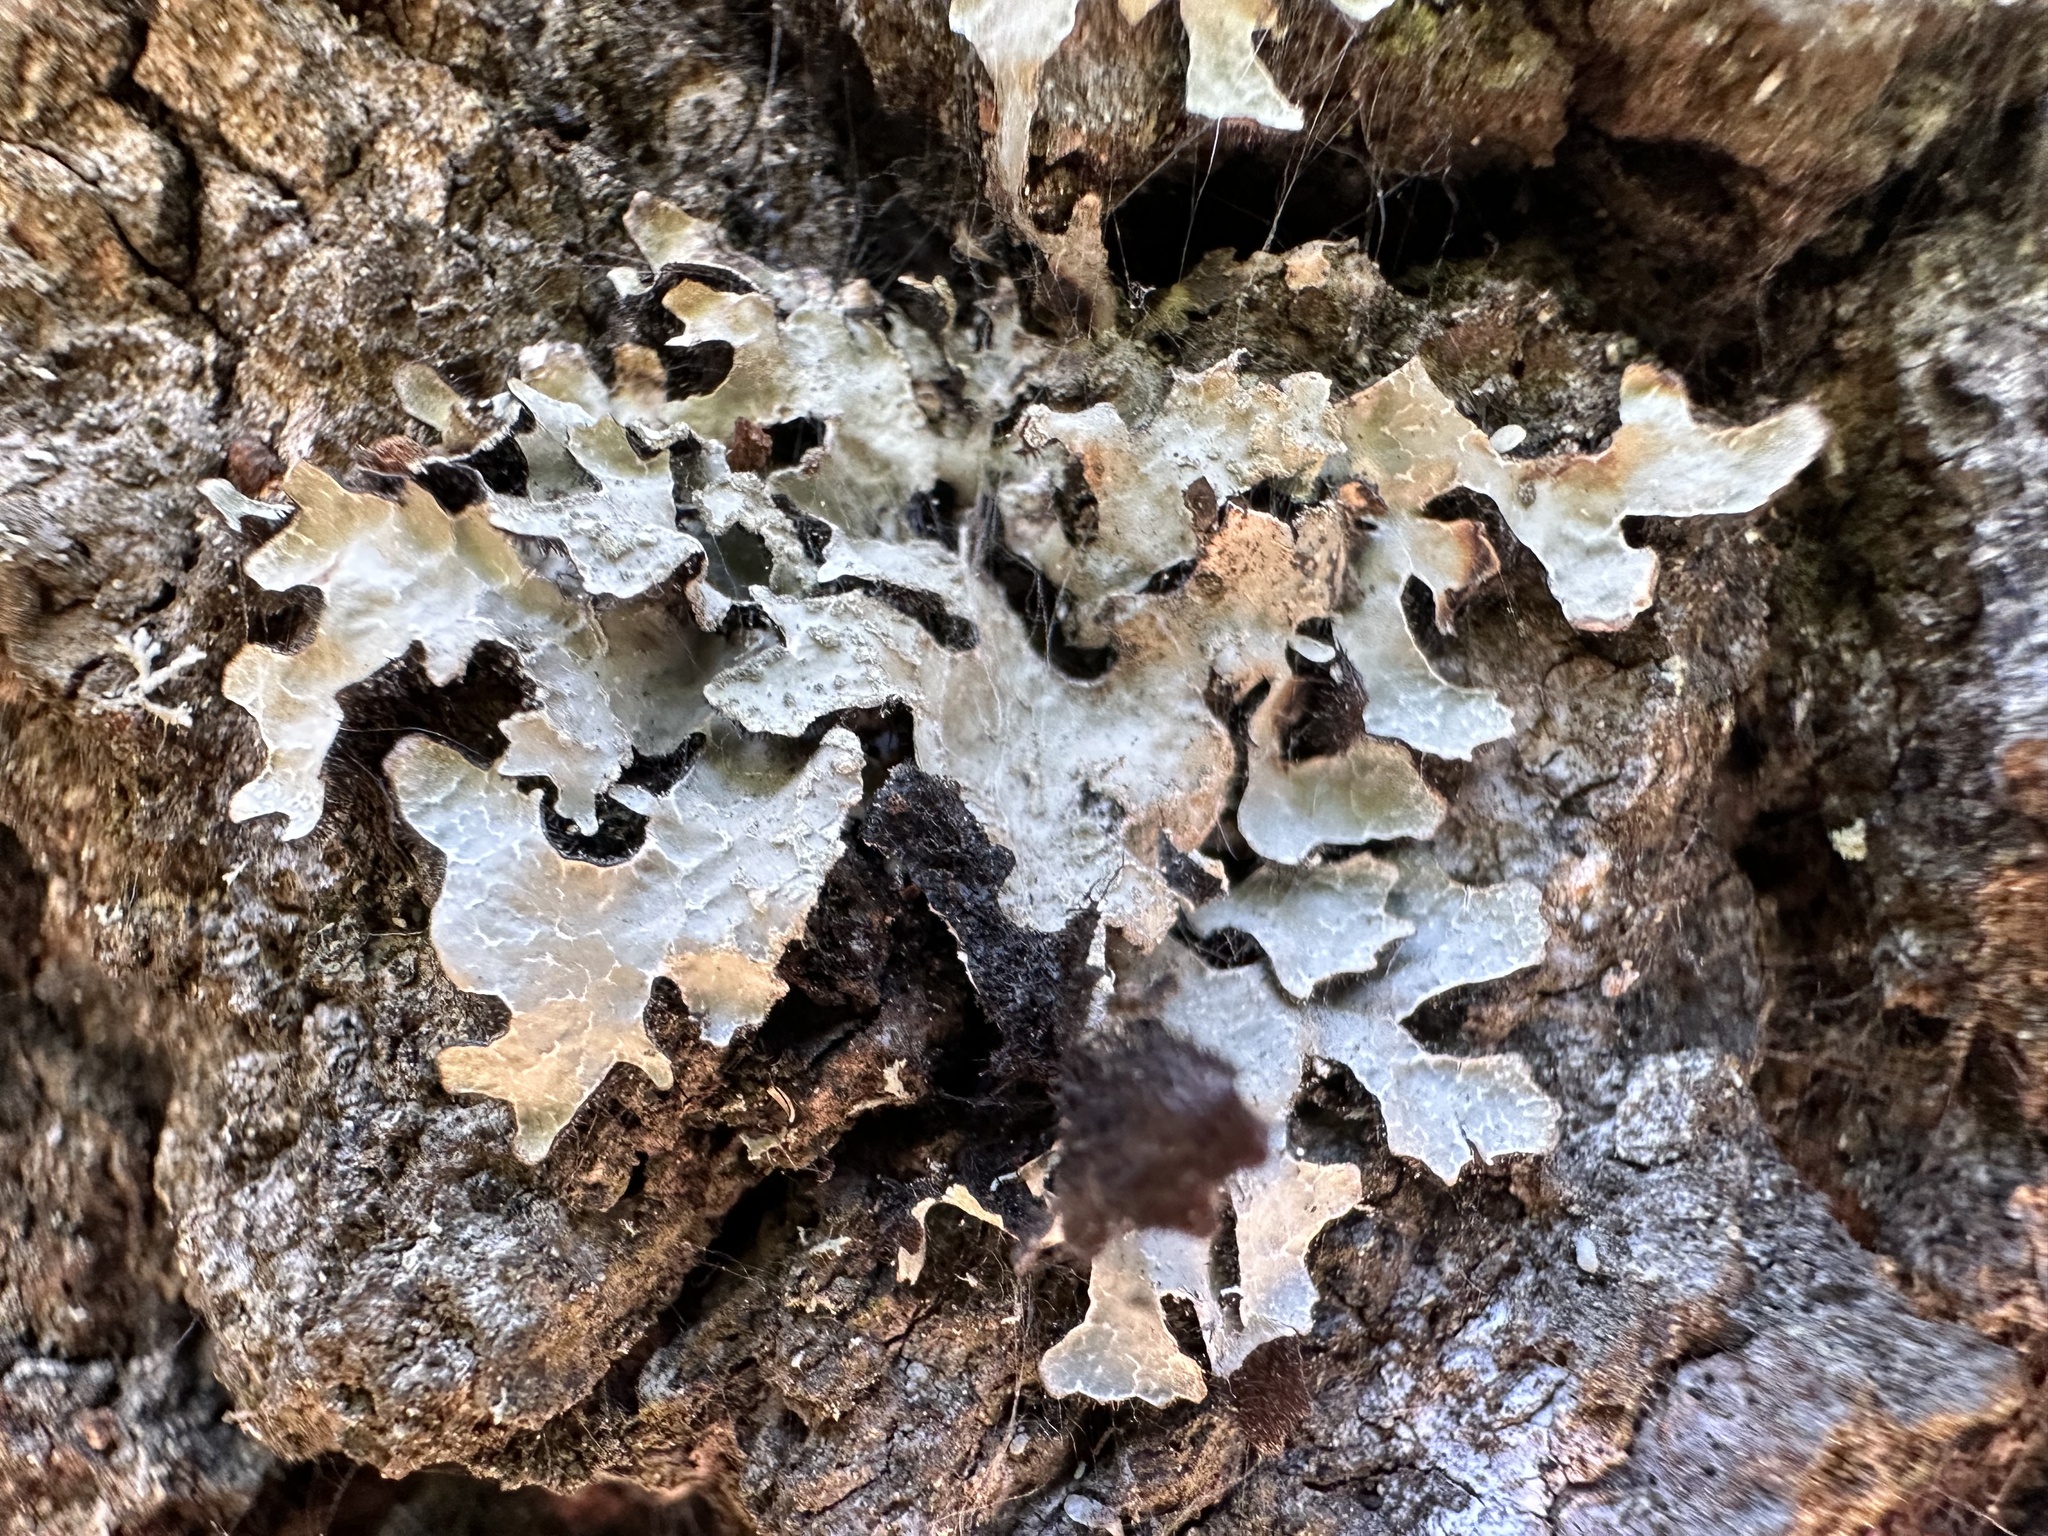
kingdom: Fungi
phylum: Ascomycota
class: Lecanoromycetes
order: Lecanorales
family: Parmeliaceae
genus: Parmelia
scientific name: Parmelia sulcata
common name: Netted shield lichen
